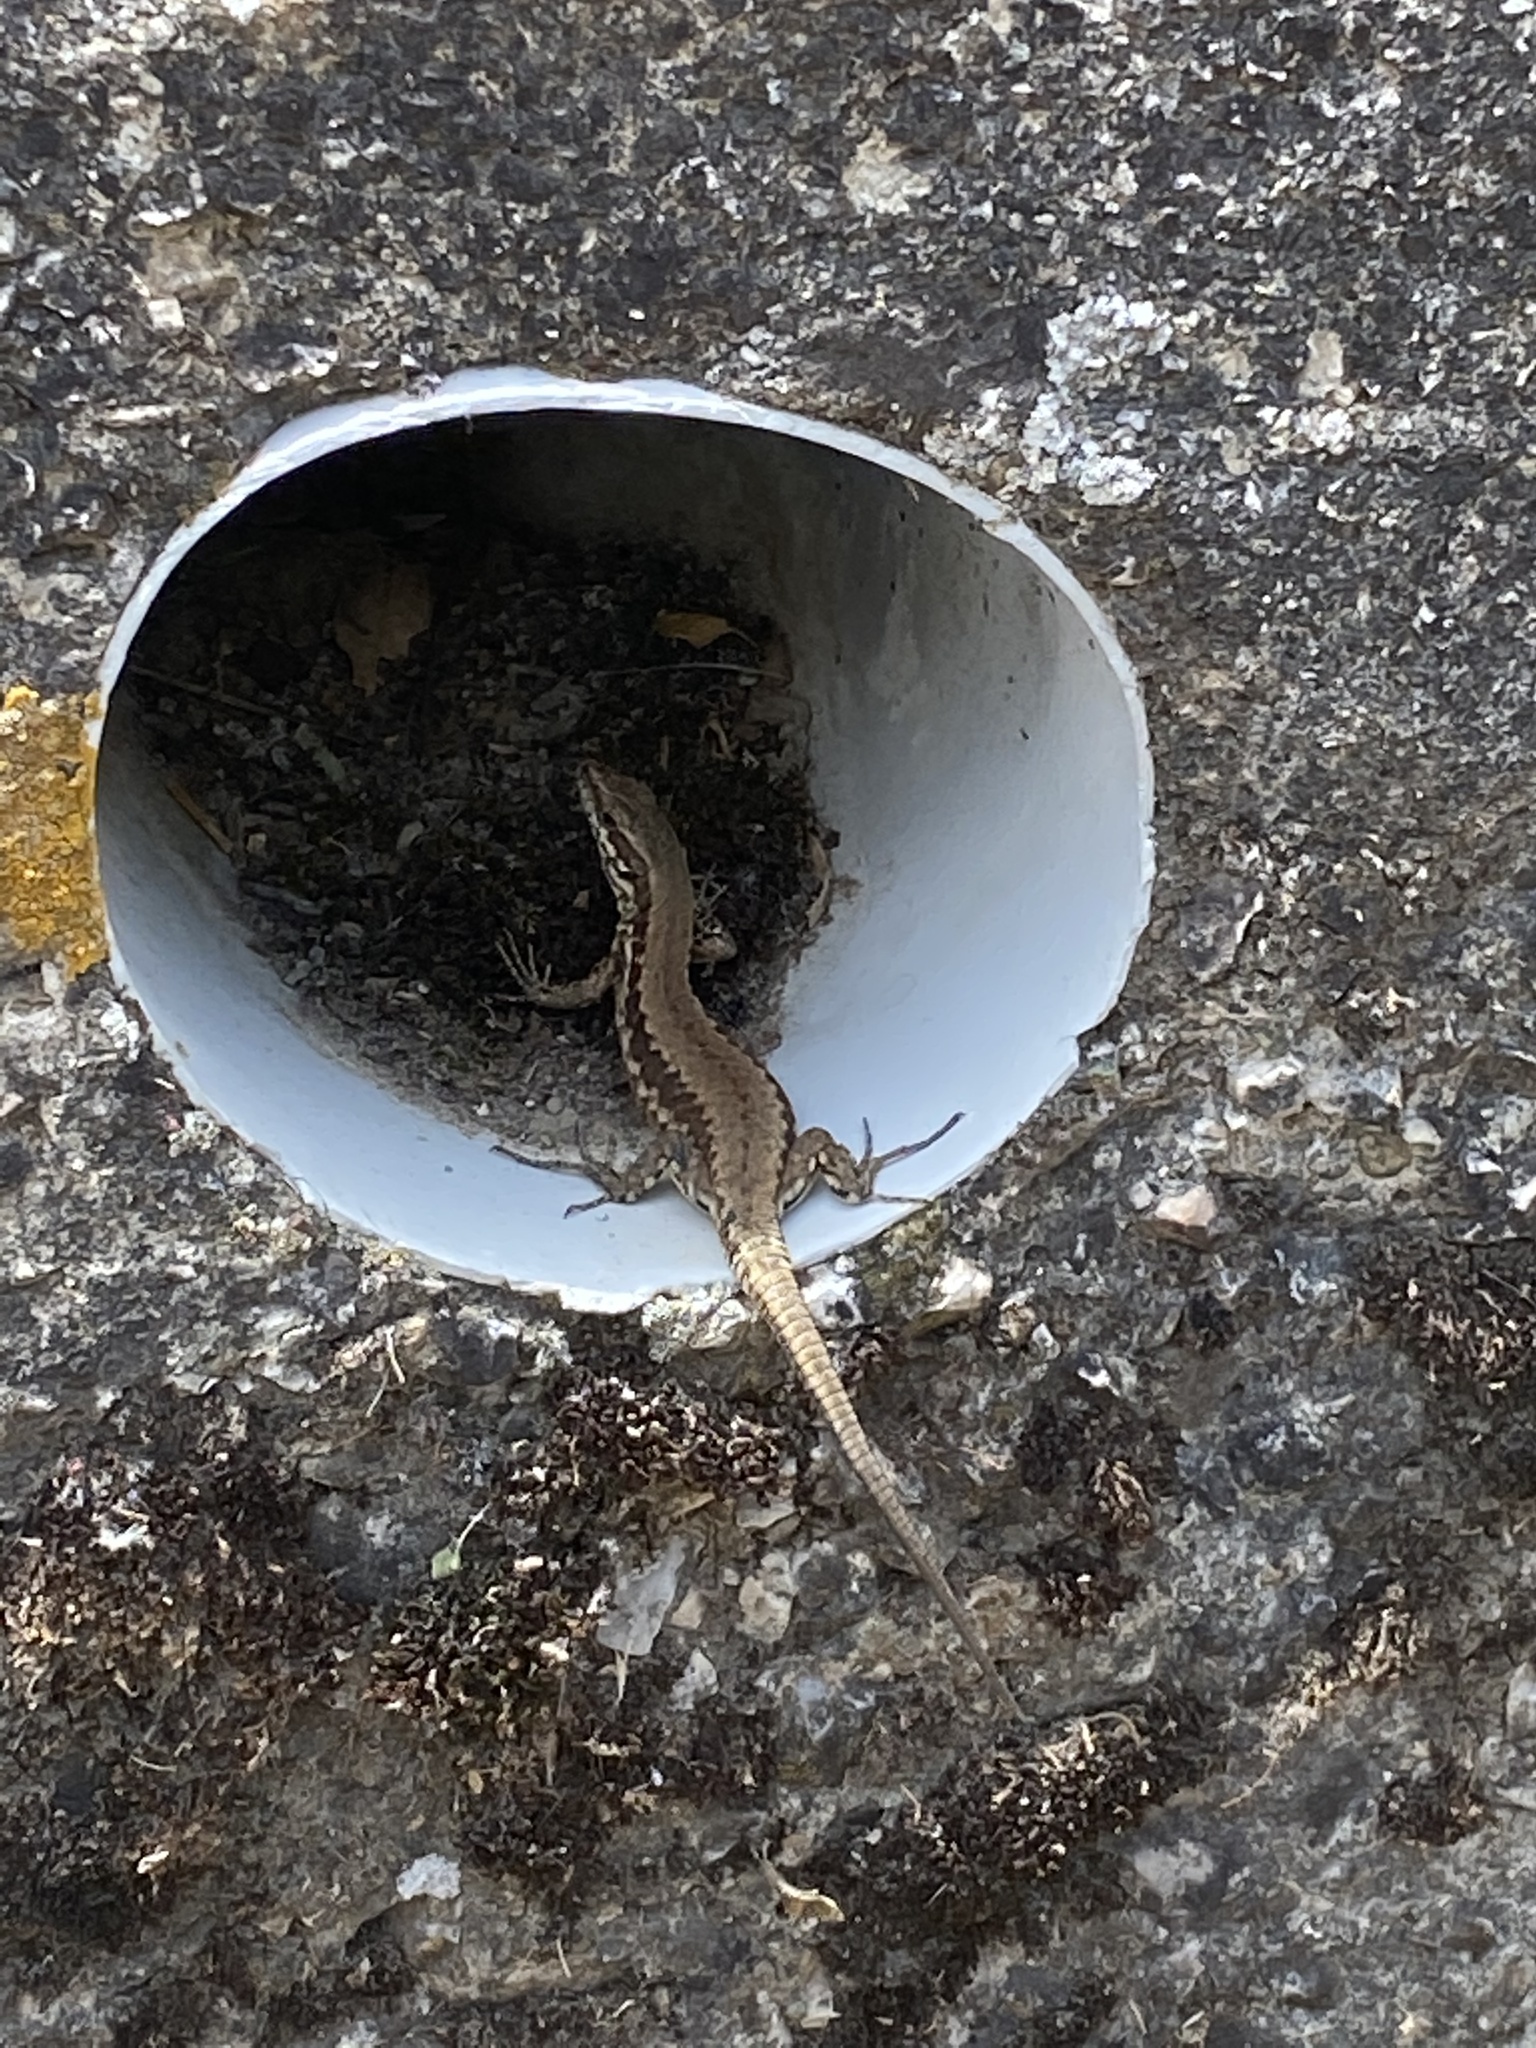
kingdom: Animalia
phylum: Chordata
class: Squamata
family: Lacertidae
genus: Podarcis
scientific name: Podarcis muralis
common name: Common wall lizard
